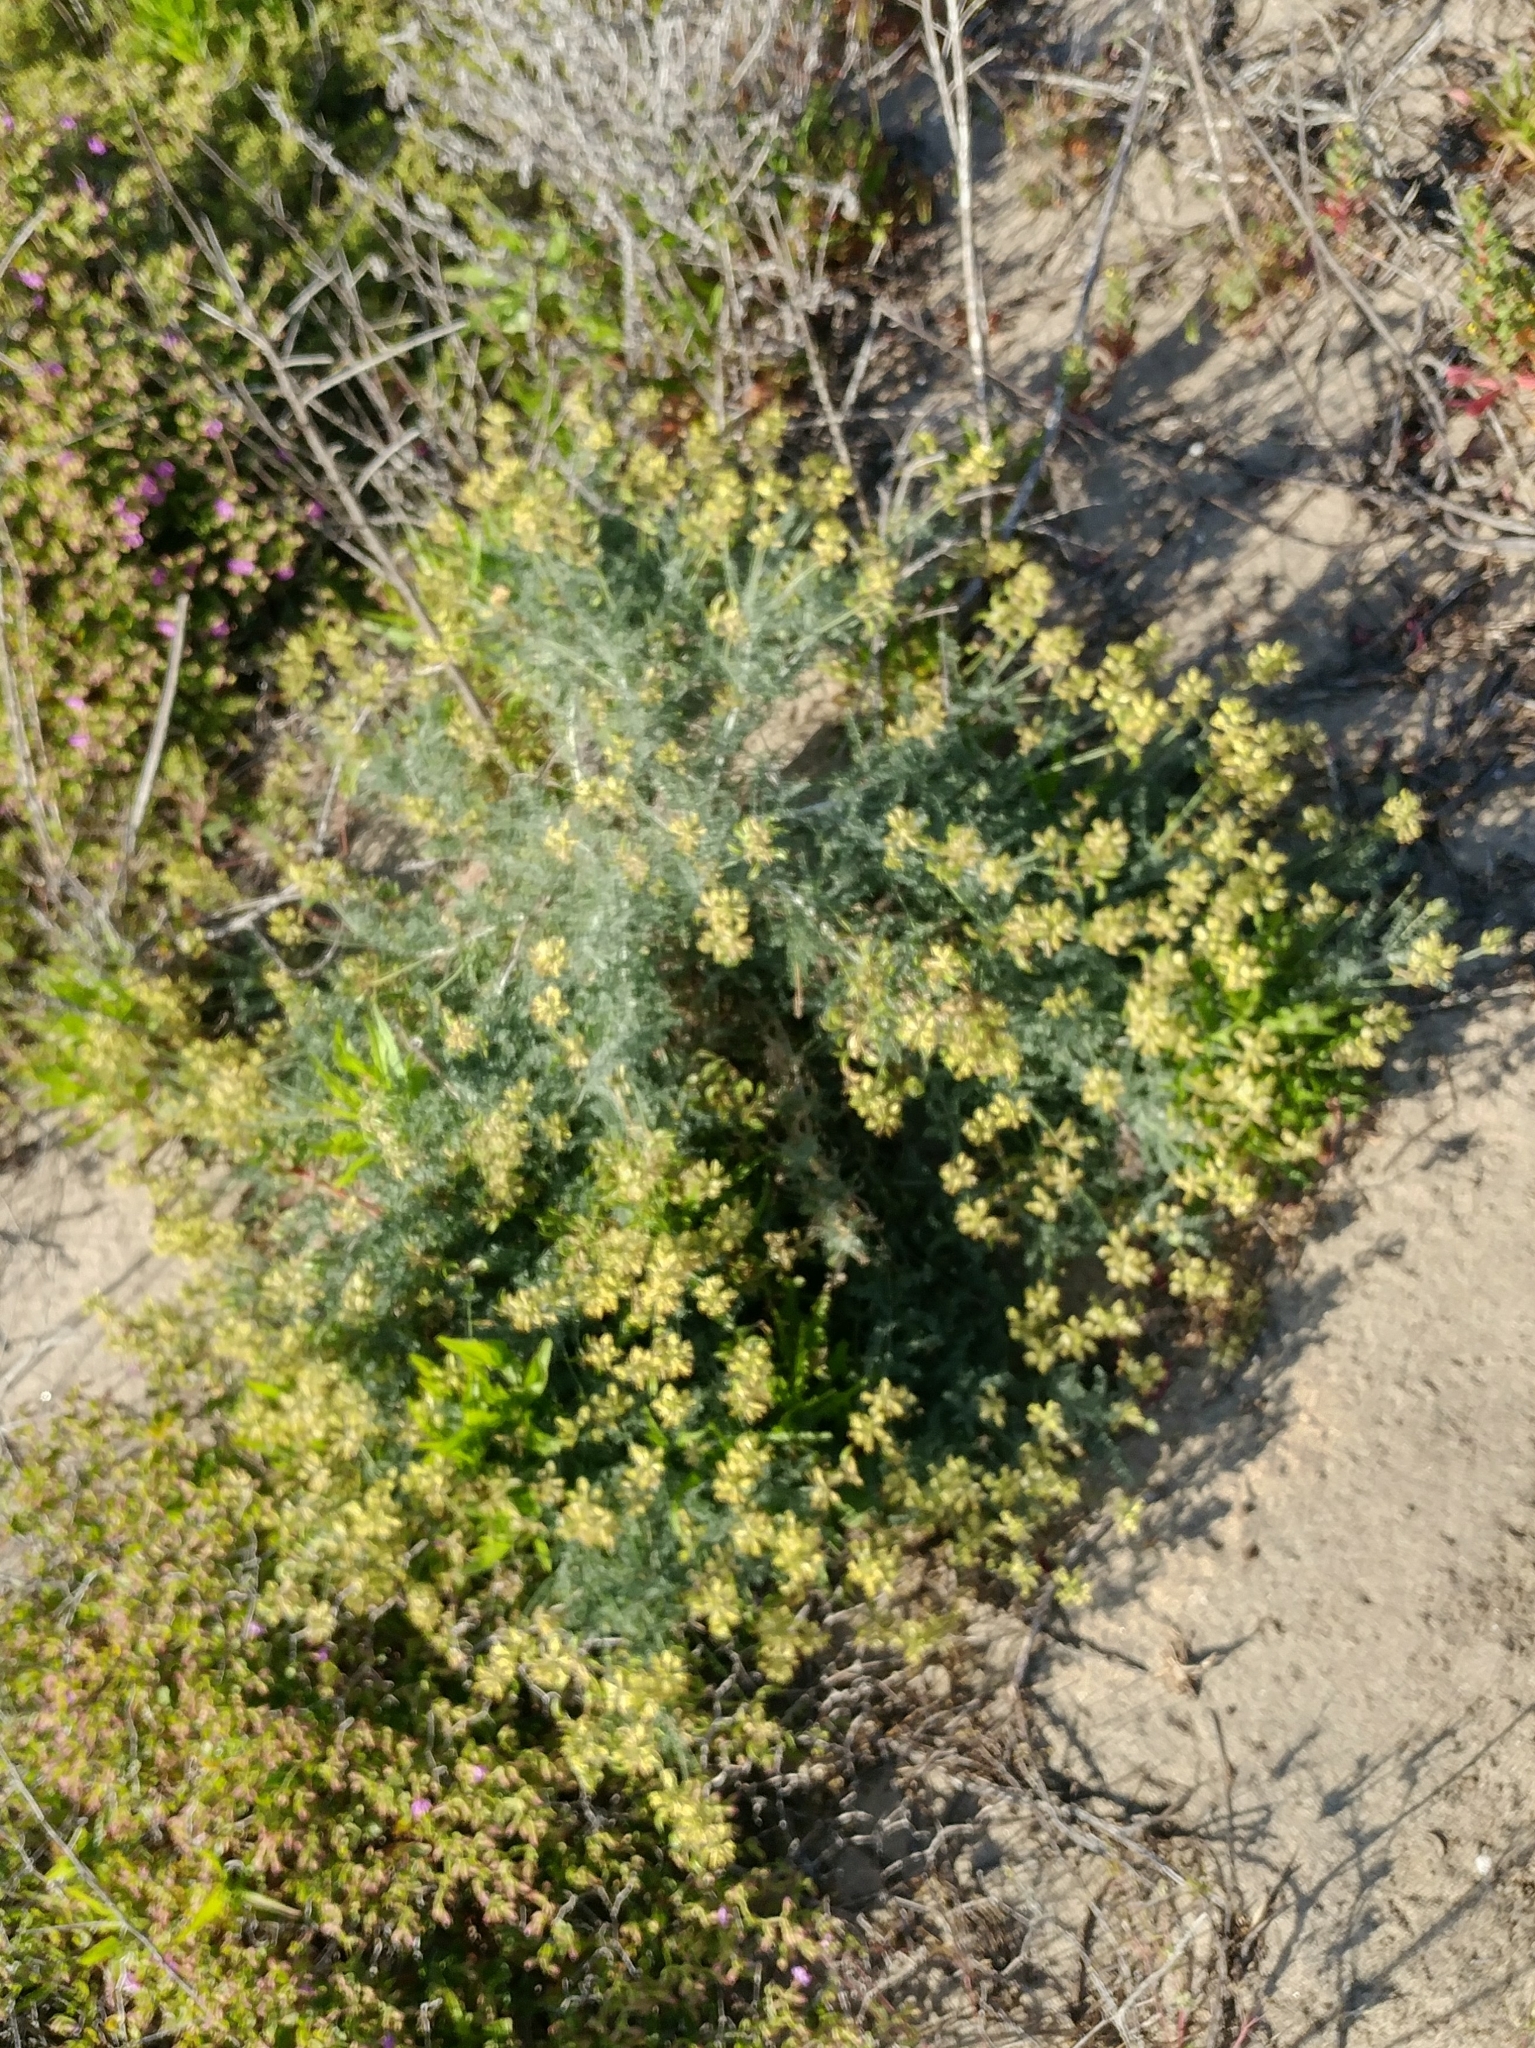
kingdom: Plantae
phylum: Tracheophyta
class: Magnoliopsida
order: Fabales
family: Fabaceae
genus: Astragalus
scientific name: Astragalus nevinii
